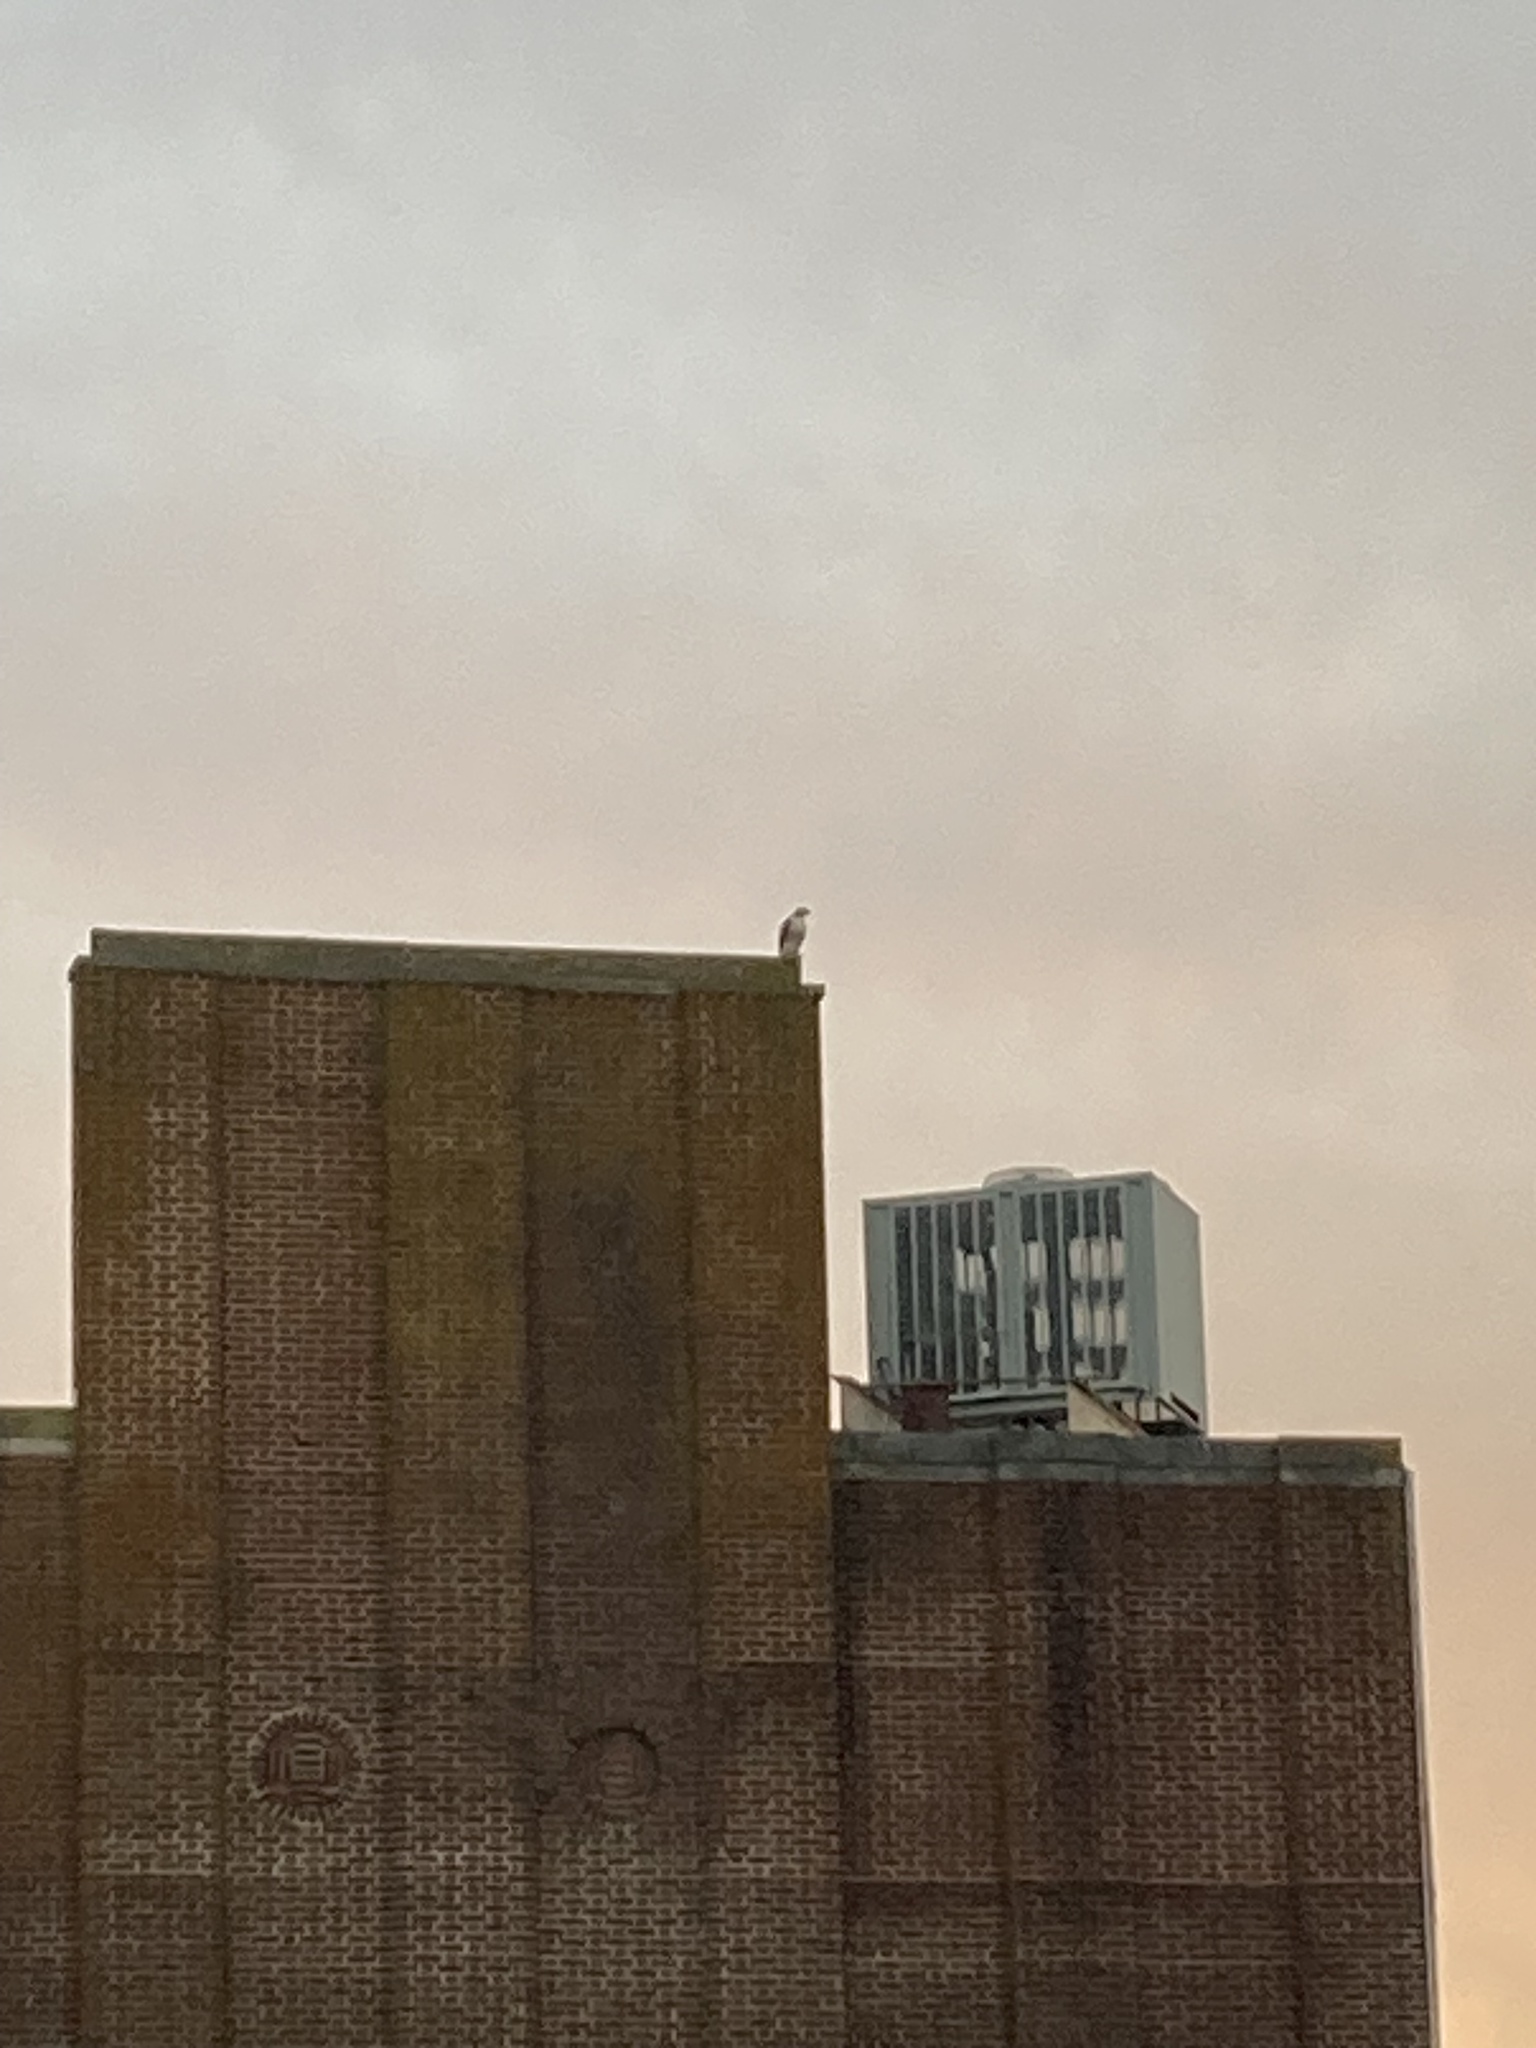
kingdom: Animalia
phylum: Chordata
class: Aves
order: Accipitriformes
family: Accipitridae
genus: Buteo
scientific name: Buteo jamaicensis
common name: Red-tailed hawk
